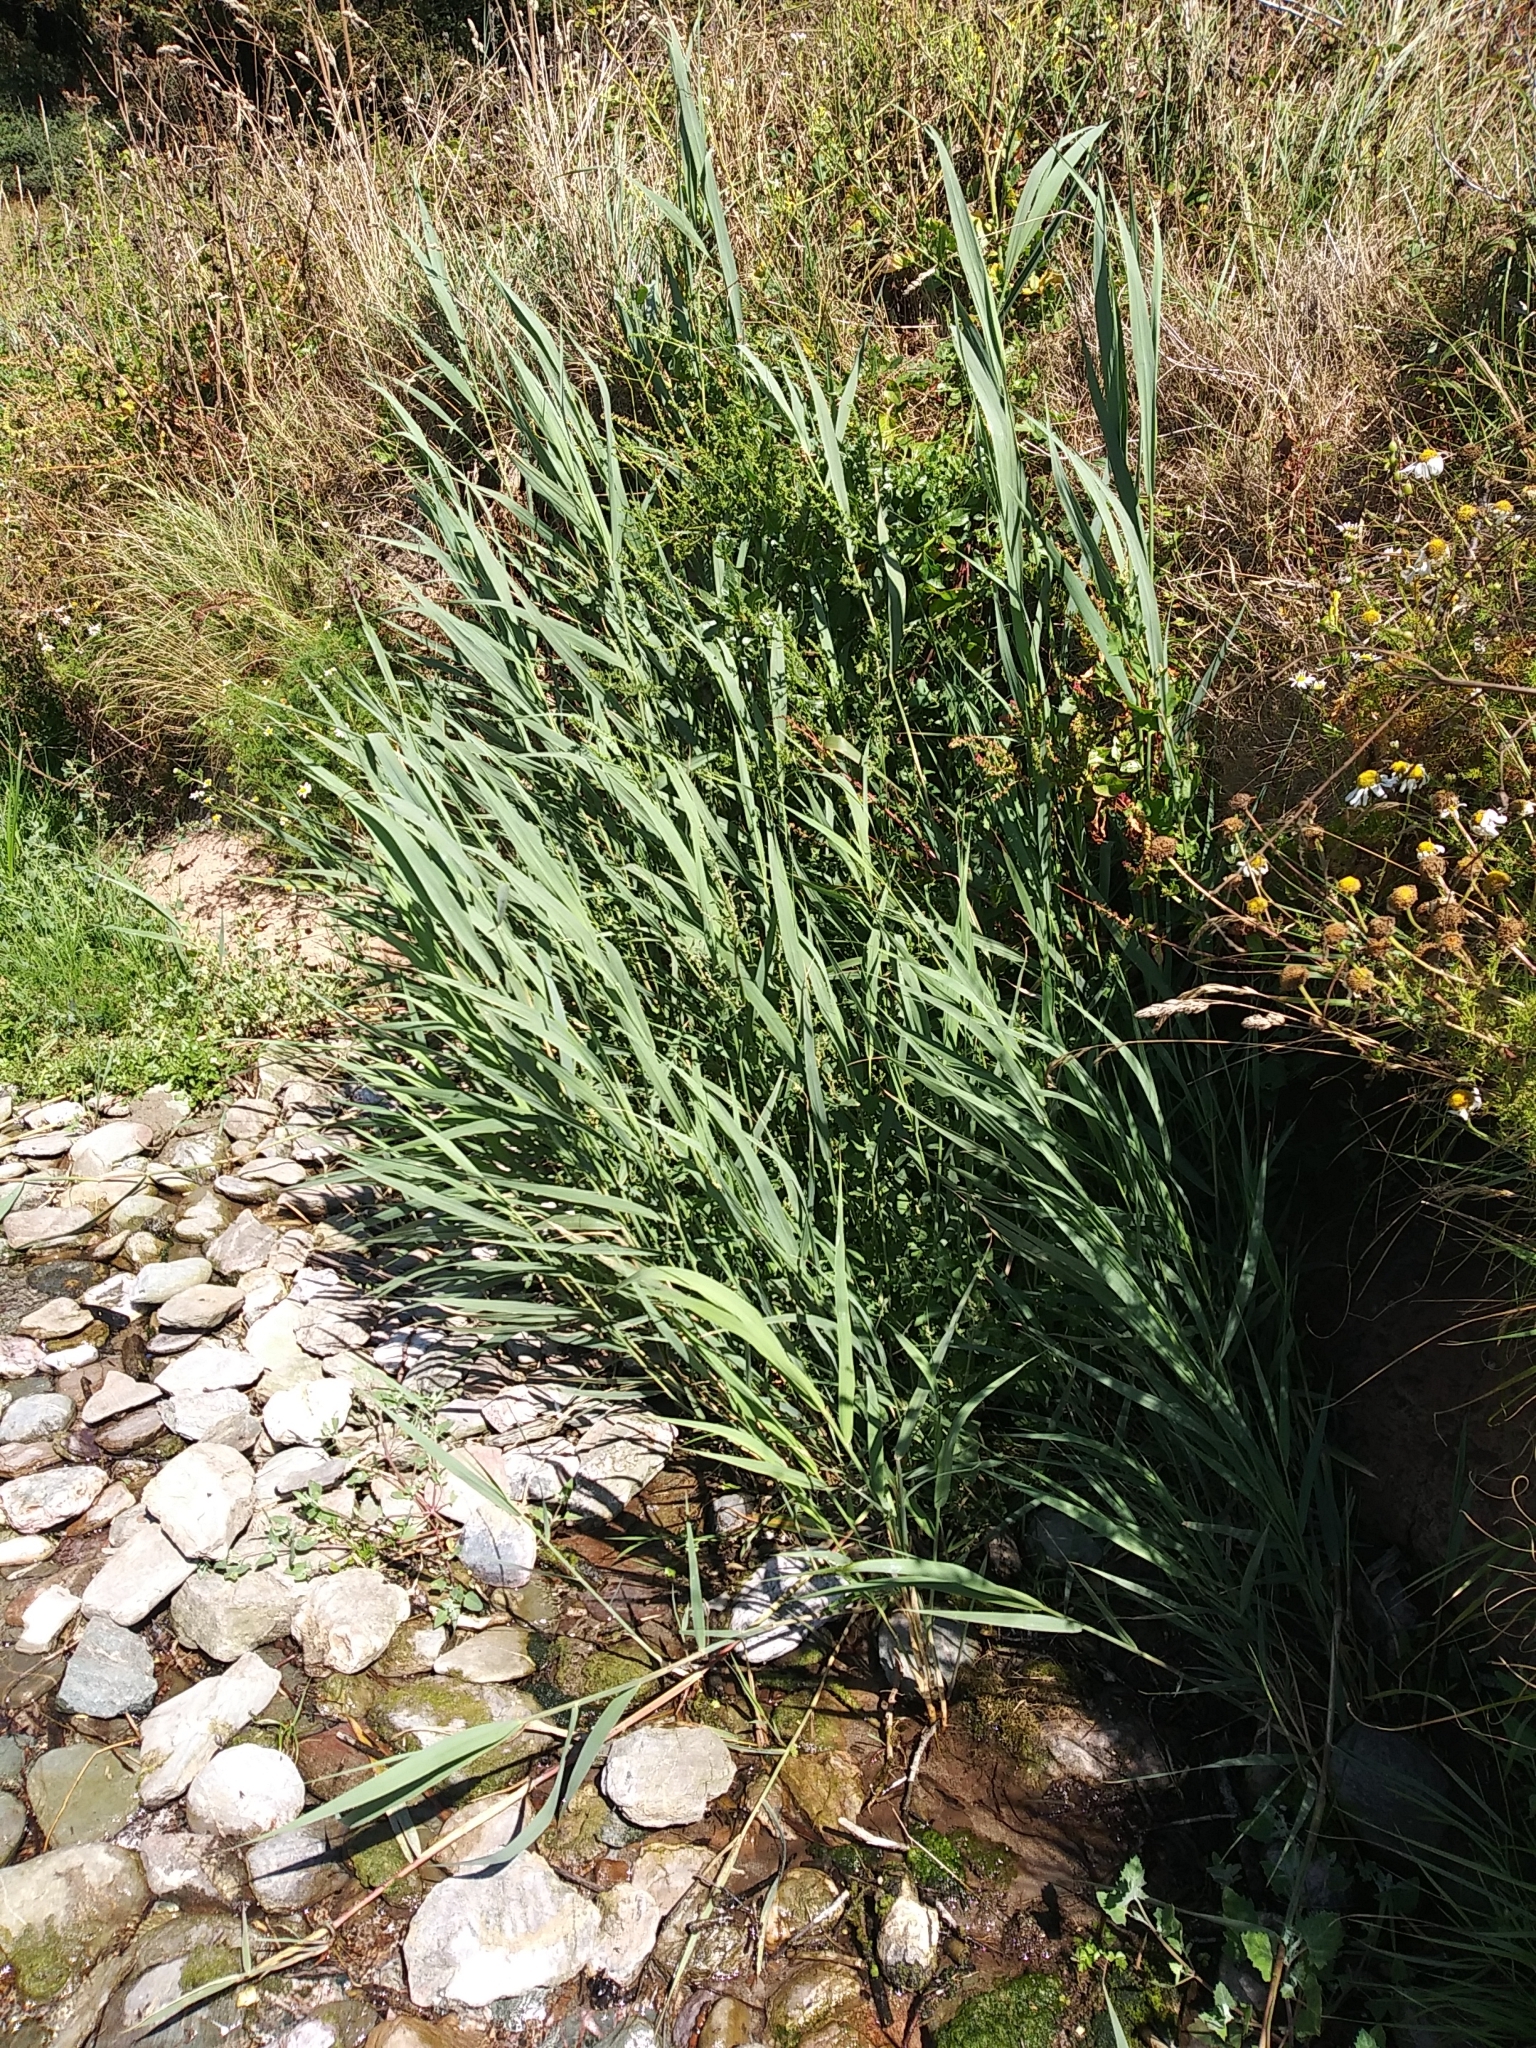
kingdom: Plantae
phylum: Tracheophyta
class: Liliopsida
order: Poales
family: Poaceae
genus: Phragmites
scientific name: Phragmites australis
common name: Common reed
